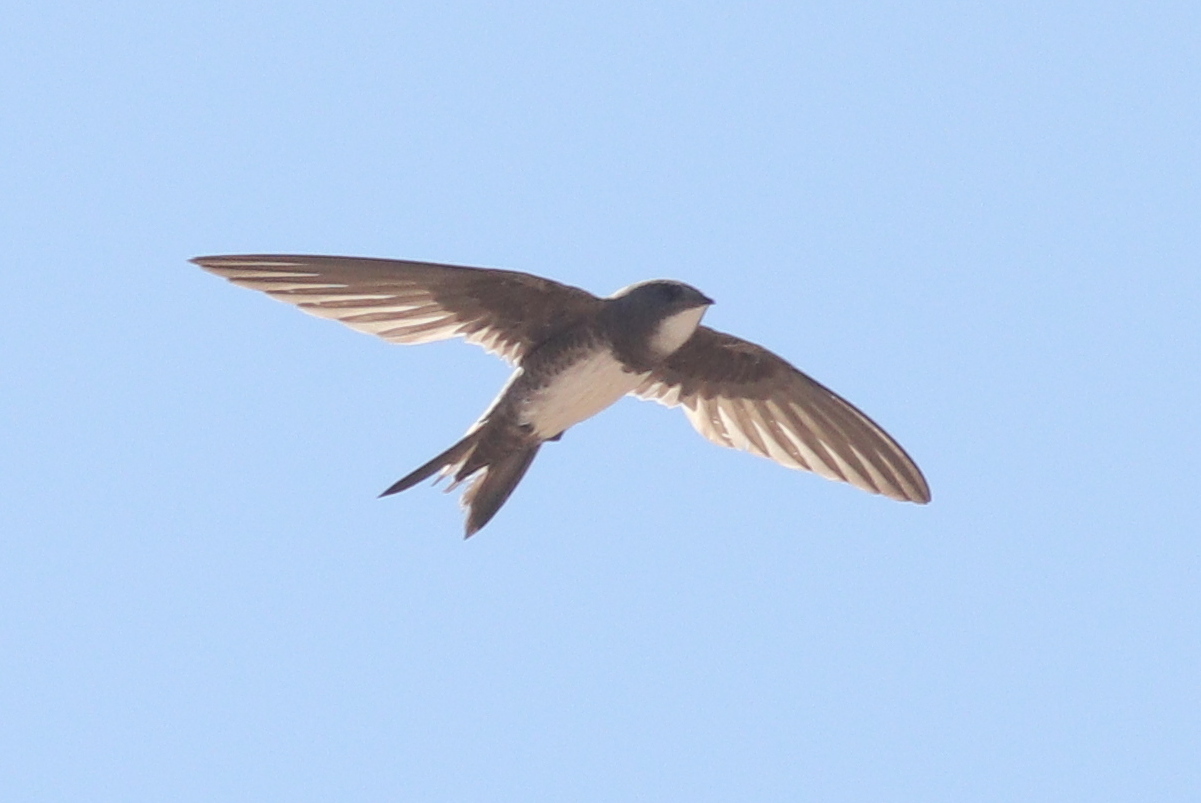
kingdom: Animalia
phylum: Chordata
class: Aves
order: Apodiformes
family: Apodidae
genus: Tachymarptis
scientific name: Tachymarptis melba
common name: Alpine swift
